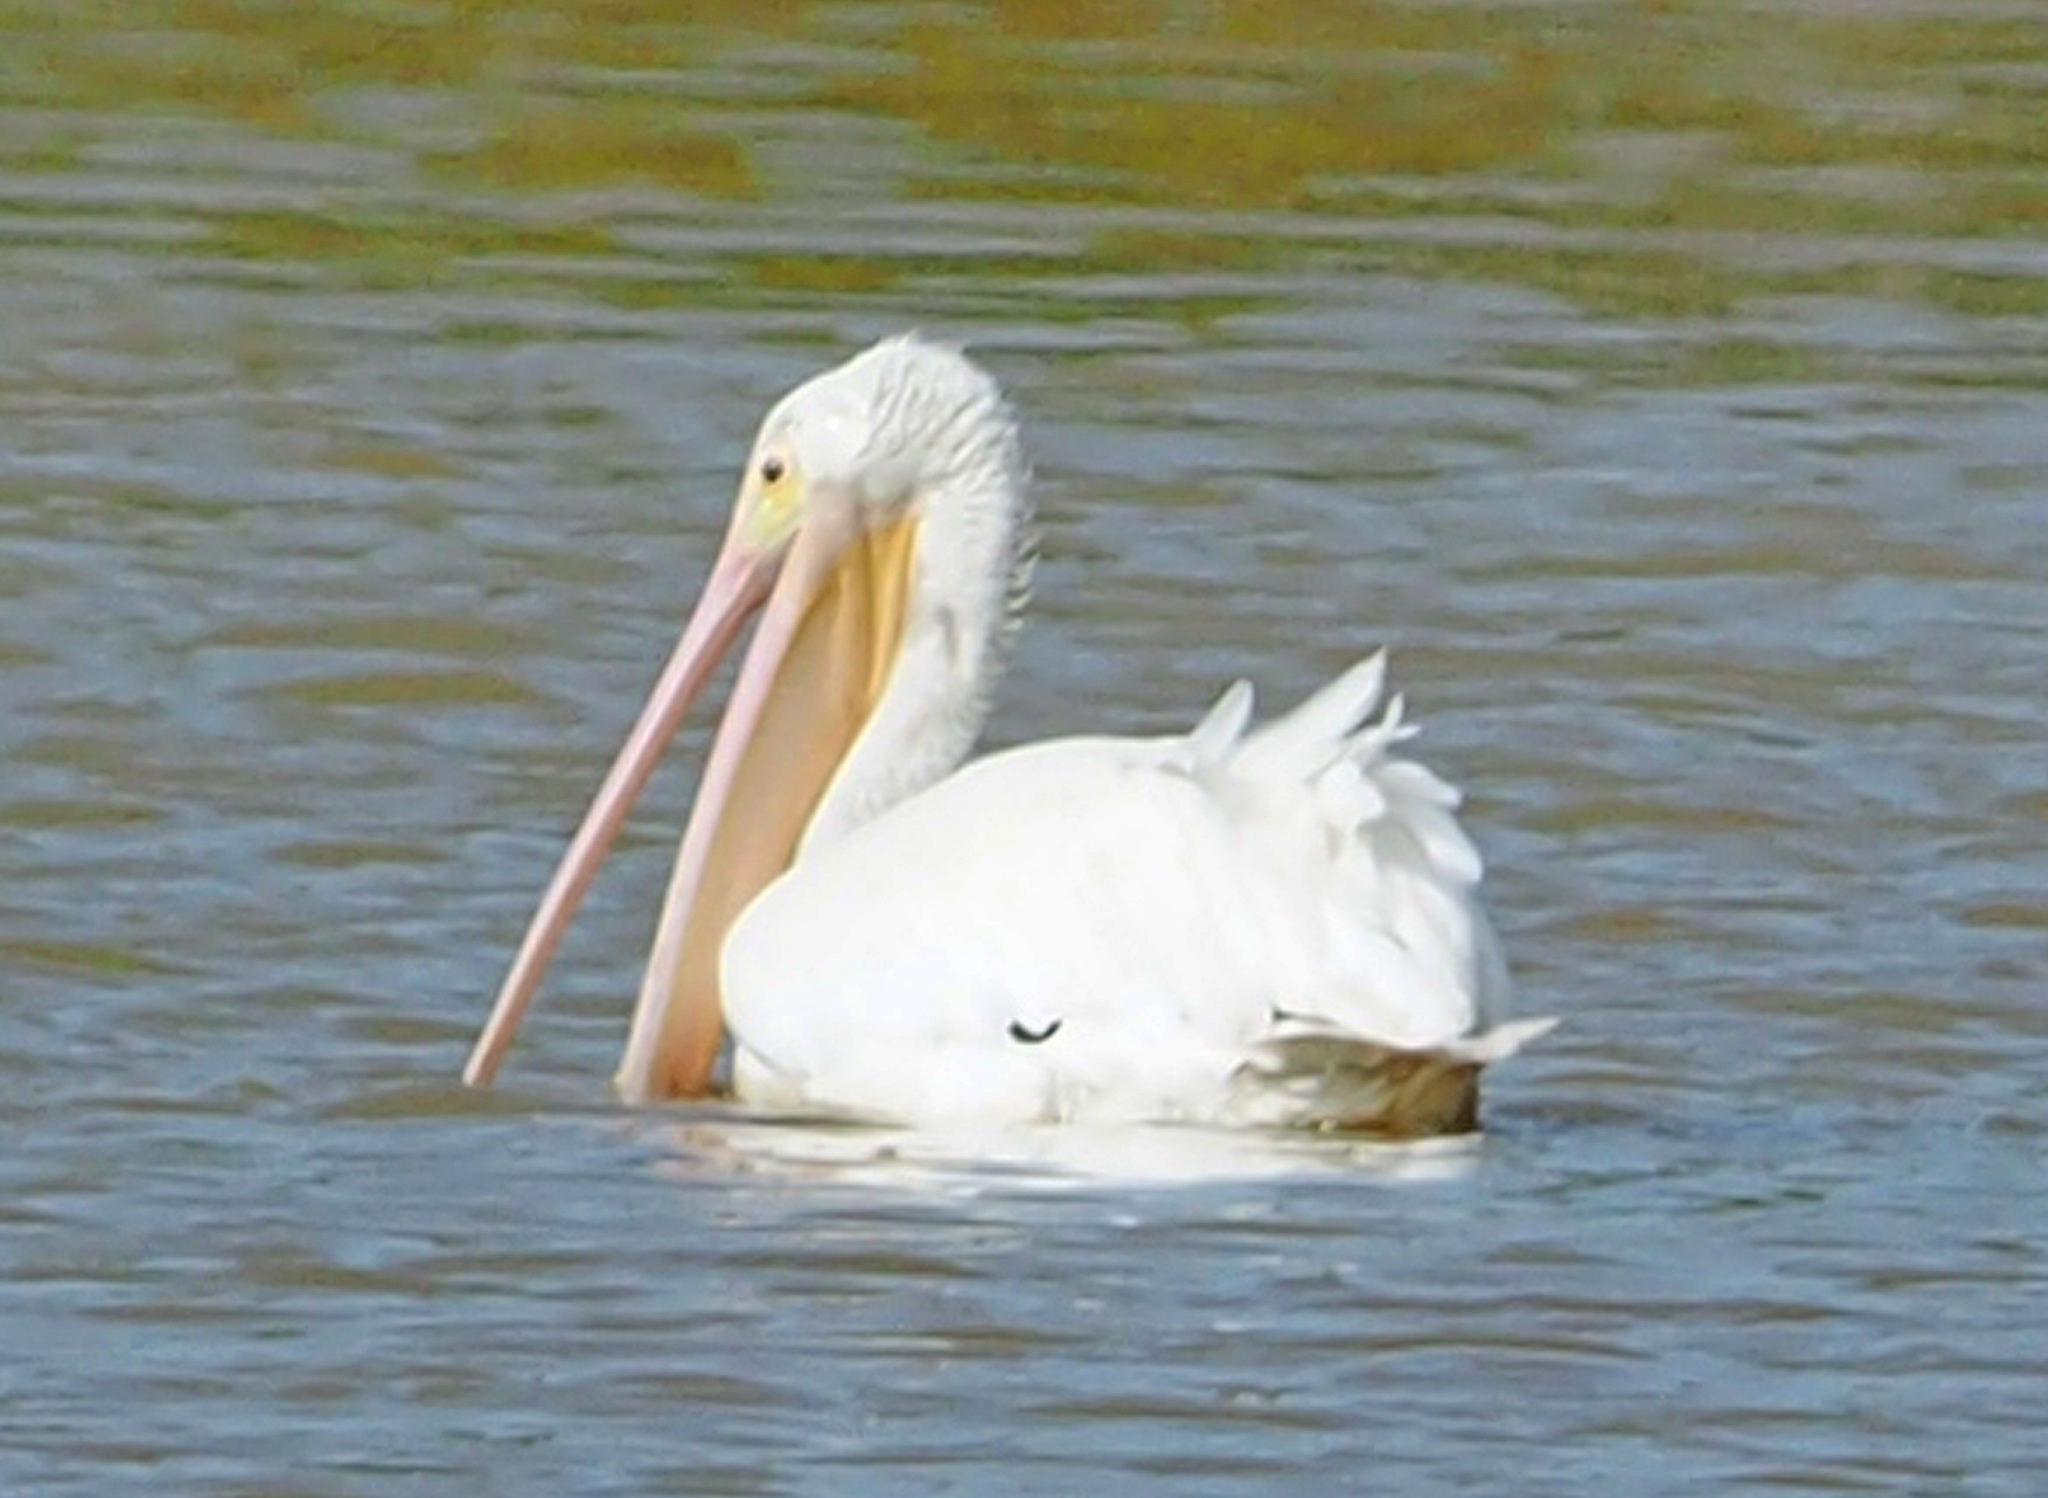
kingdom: Animalia
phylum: Chordata
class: Aves
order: Pelecaniformes
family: Pelecanidae
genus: Pelecanus
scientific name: Pelecanus erythrorhynchos
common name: American white pelican
